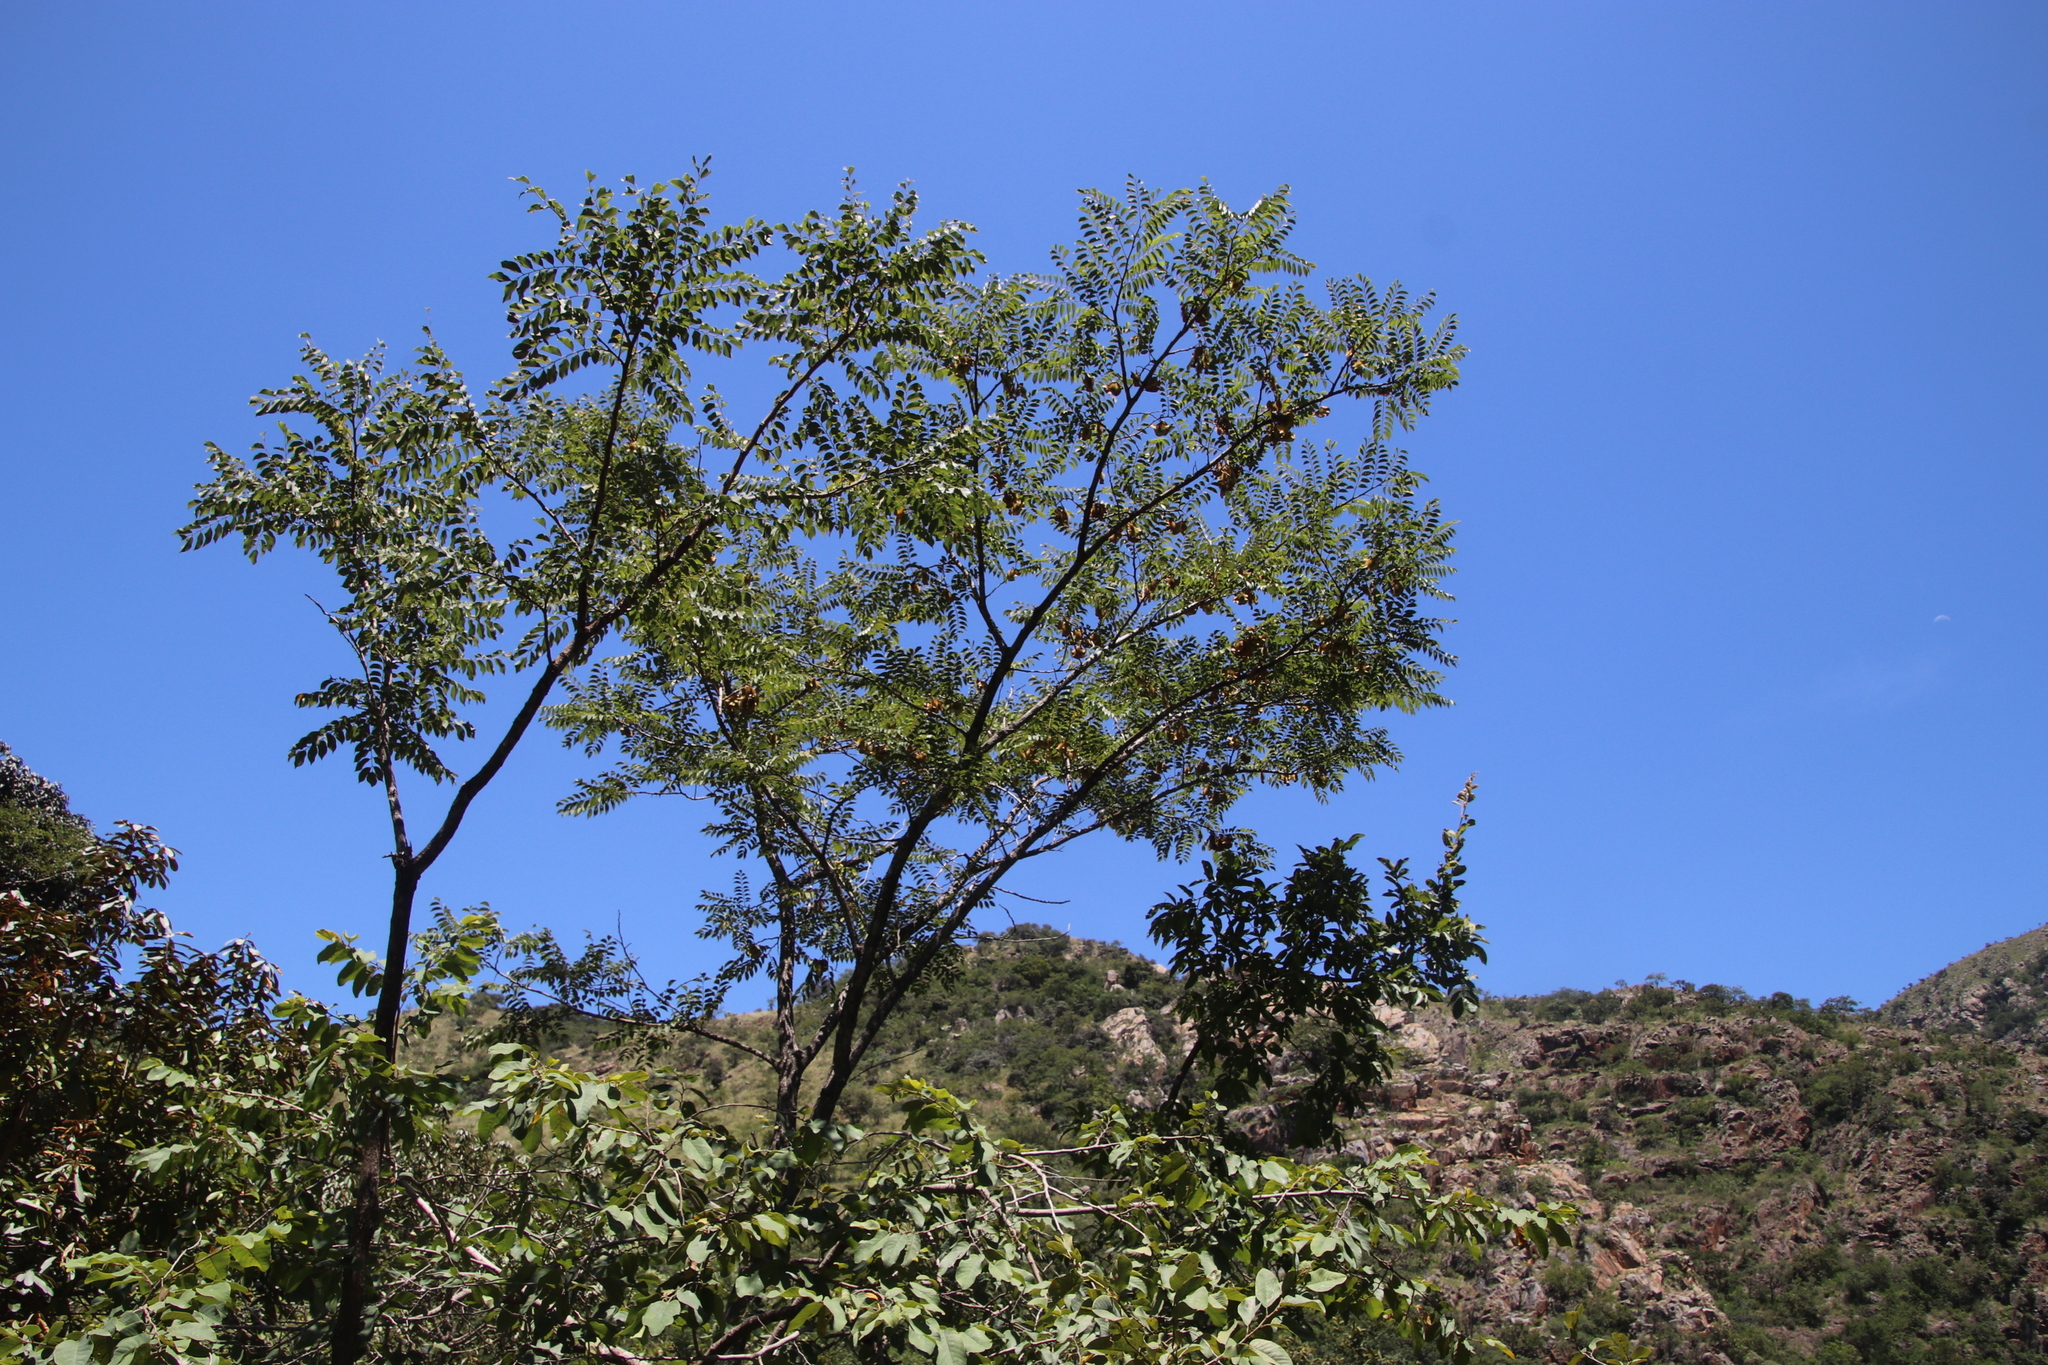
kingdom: Plantae
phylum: Tracheophyta
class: Magnoliopsida
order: Fabales
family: Fabaceae
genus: Pterocarpus
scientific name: Pterocarpus angolensis
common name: Bloodwood tree
